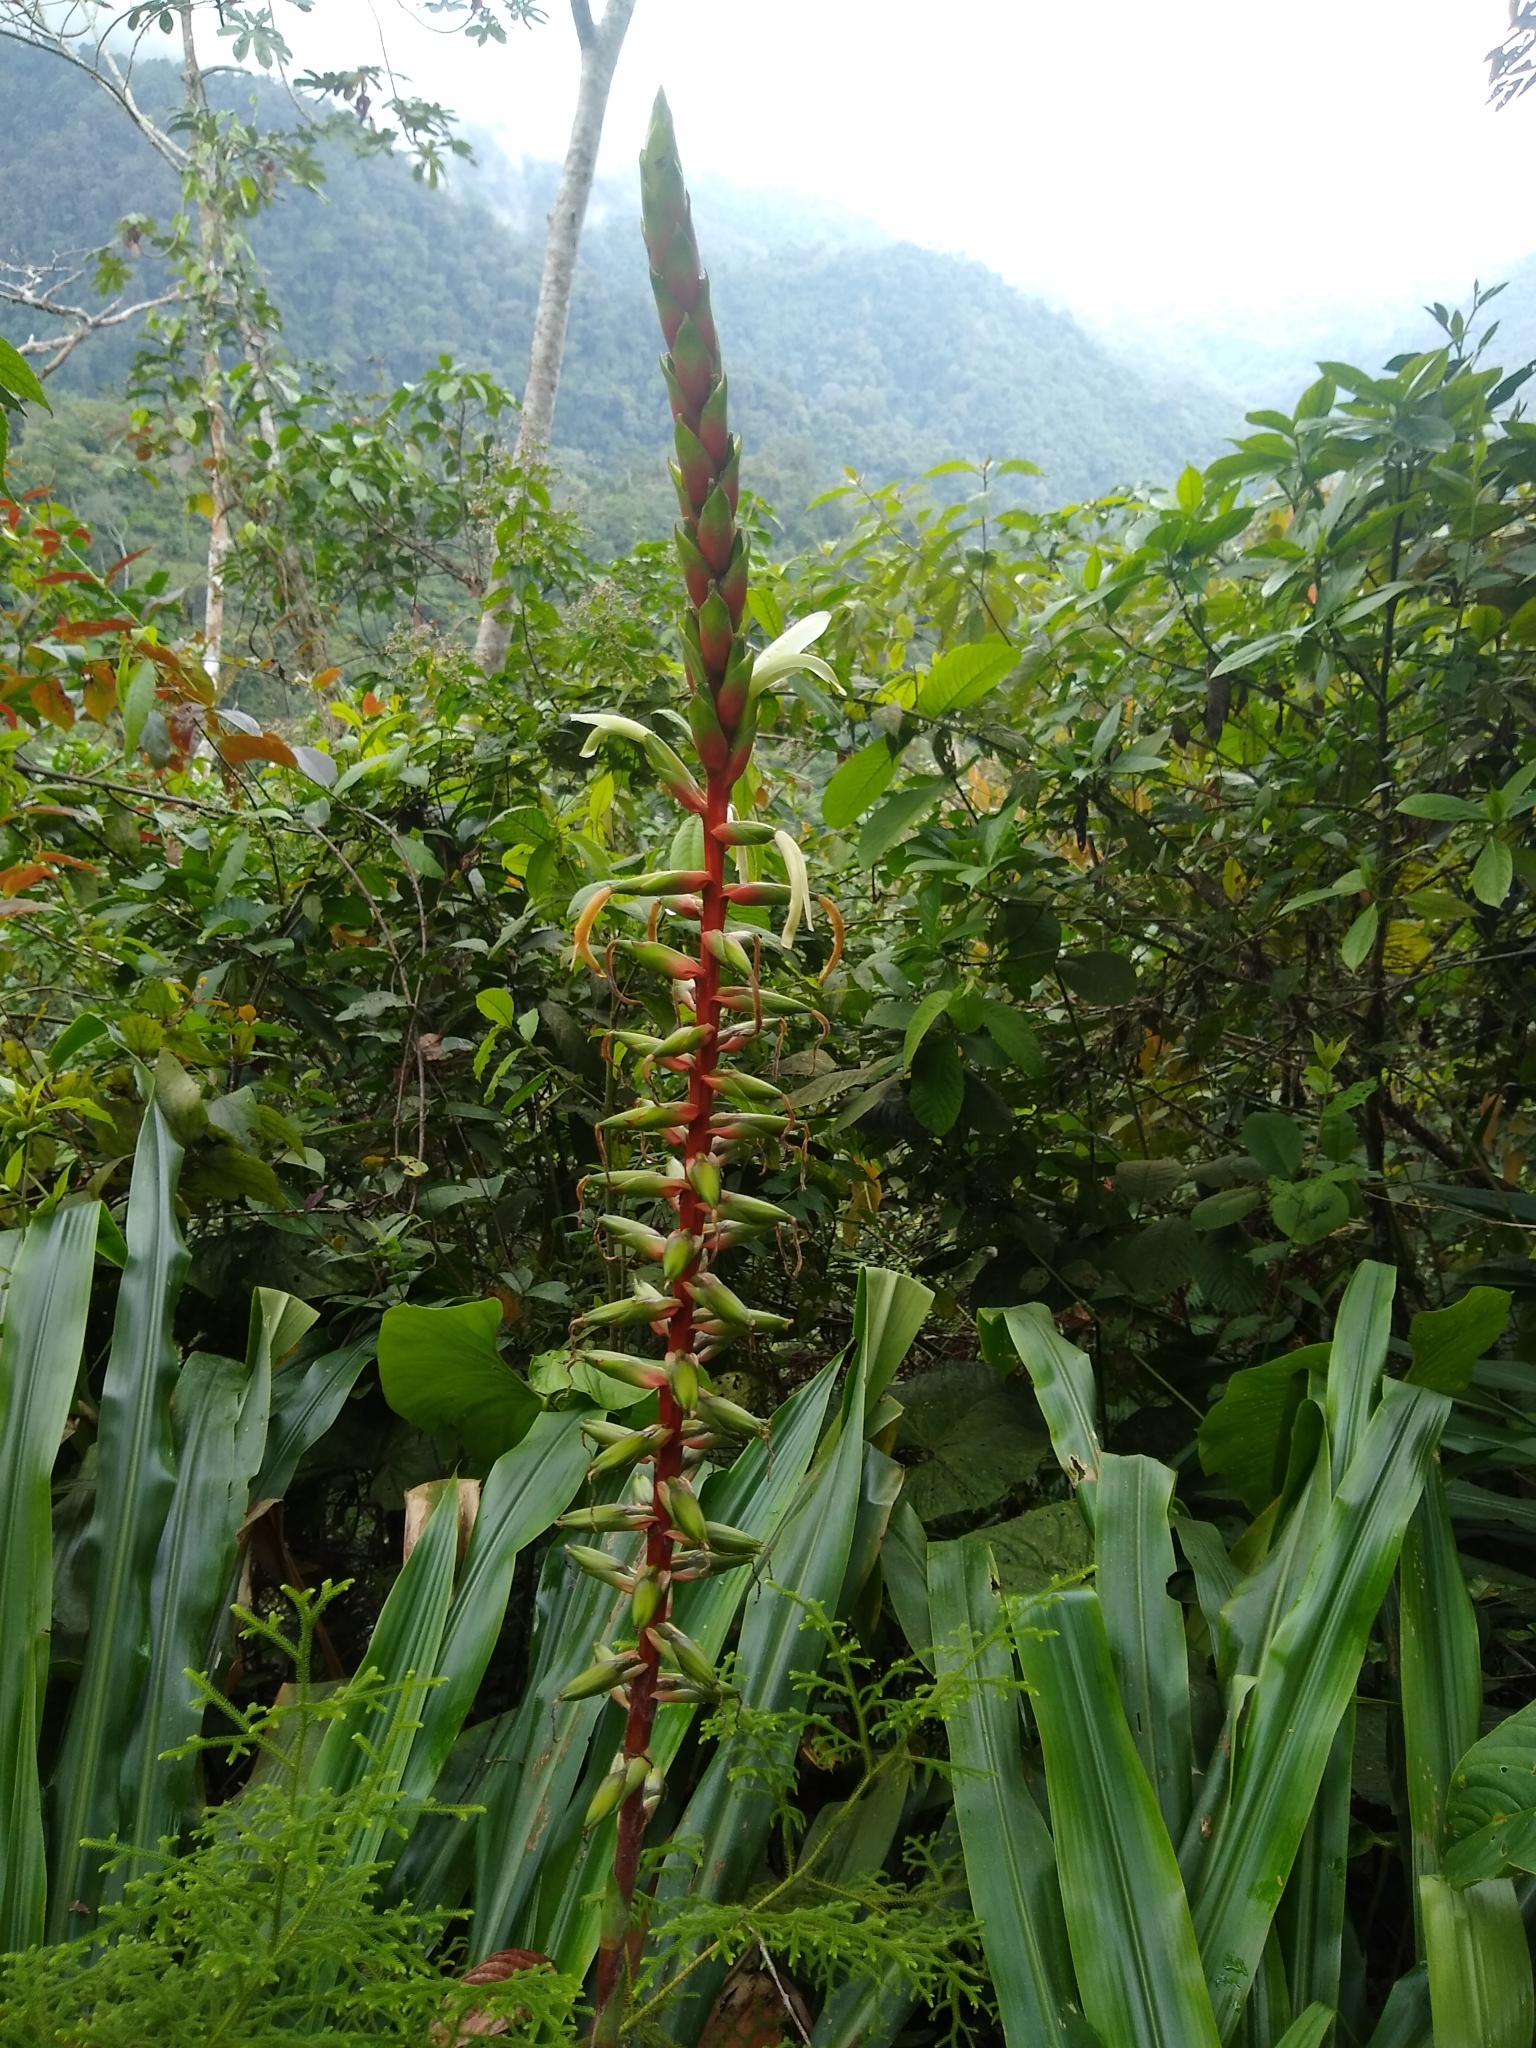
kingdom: Plantae
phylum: Tracheophyta
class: Liliopsida
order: Poales
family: Bromeliaceae
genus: Pitcairnia
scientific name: Pitcairnia maidifolia
